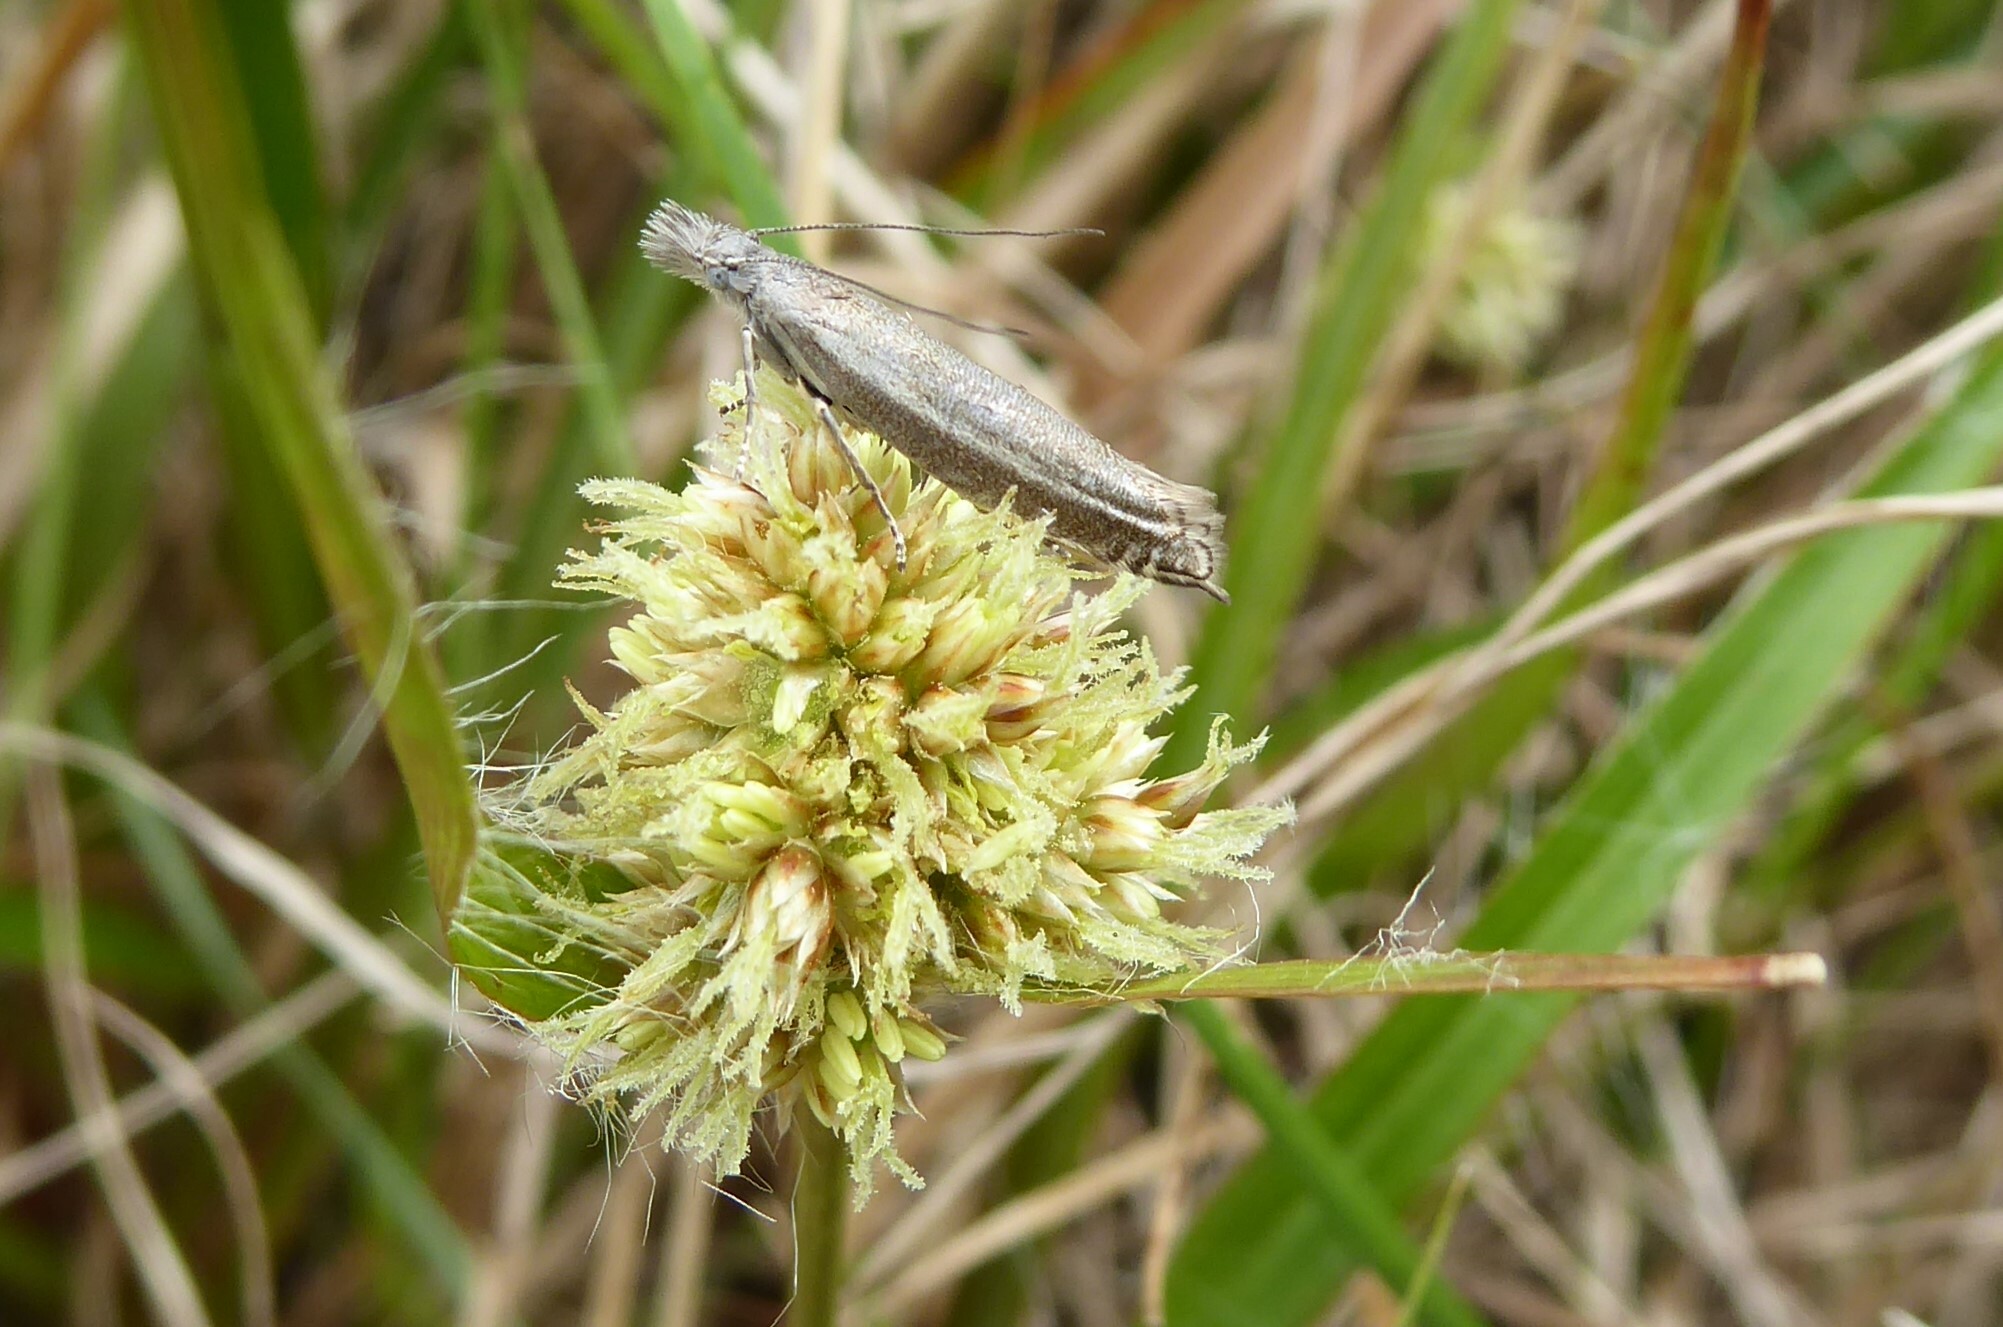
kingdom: Animalia
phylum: Arthropoda
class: Insecta
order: Lepidoptera
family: Glyphipterigidae
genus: Glyphipterix
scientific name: Glyphipterix barbata
